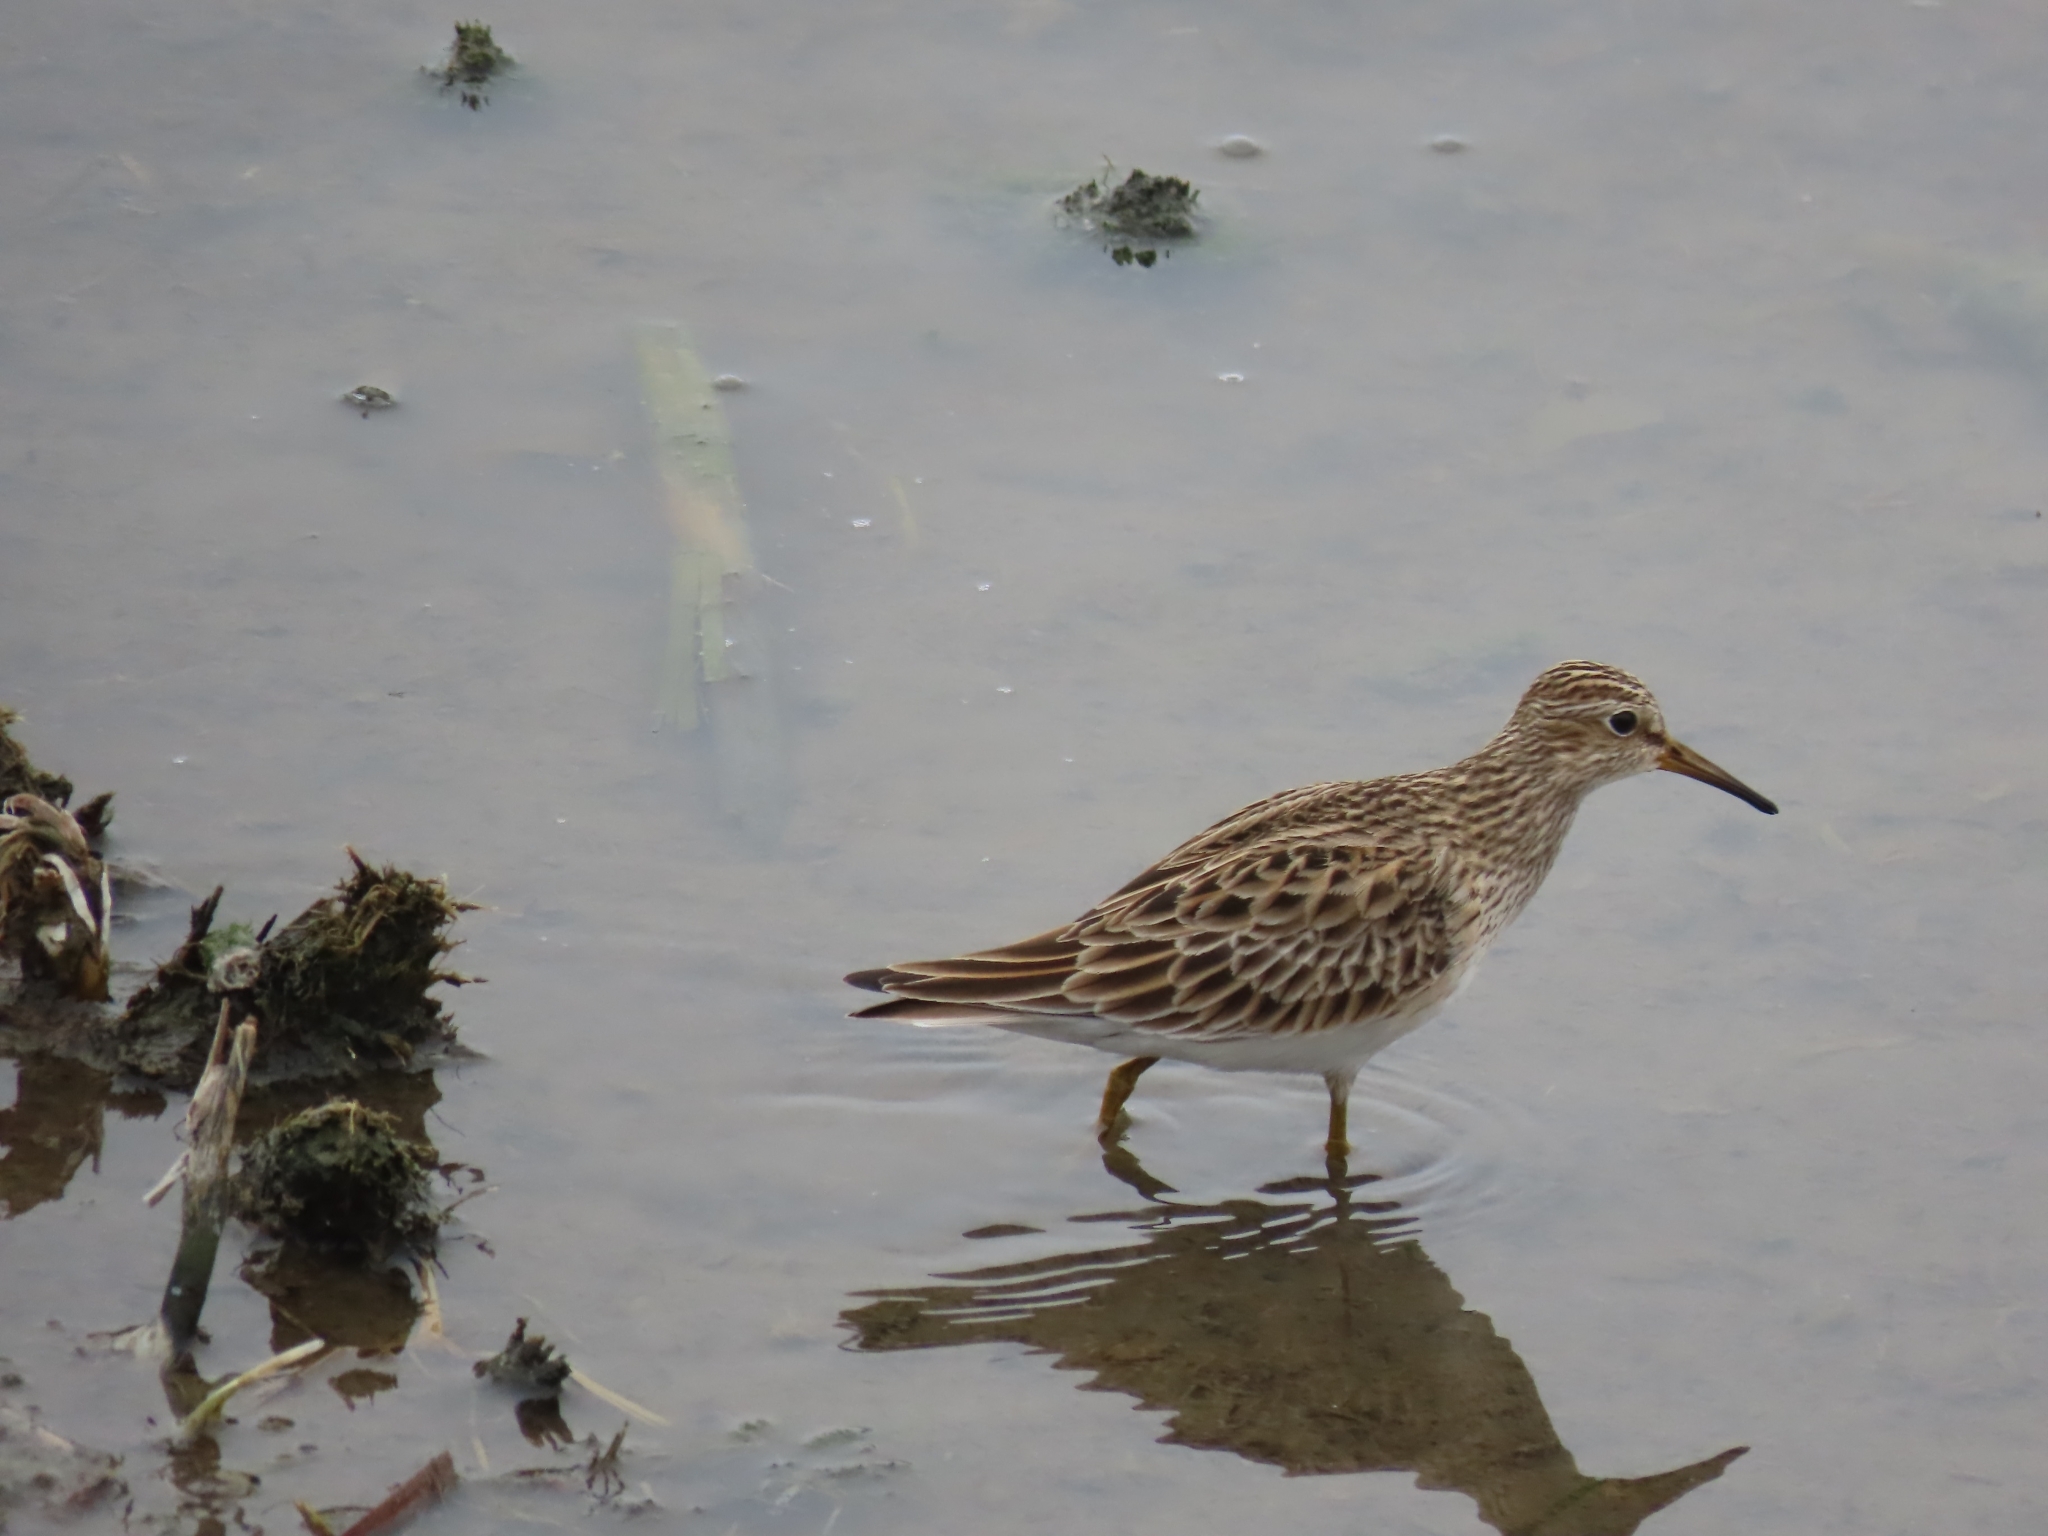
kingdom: Animalia
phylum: Chordata
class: Aves
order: Charadriiformes
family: Scolopacidae
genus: Calidris
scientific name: Calidris melanotos
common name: Pectoral sandpiper
